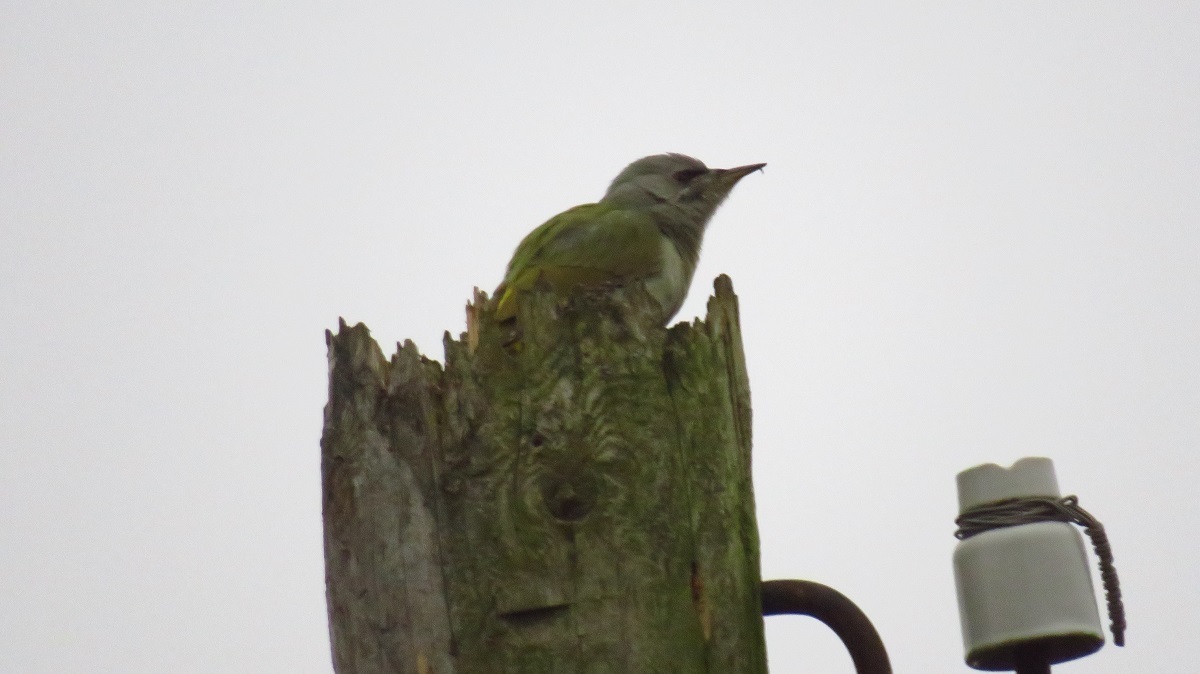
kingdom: Animalia
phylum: Chordata
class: Aves
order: Piciformes
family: Picidae
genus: Picus
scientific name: Picus canus
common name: Grey-headed woodpecker
